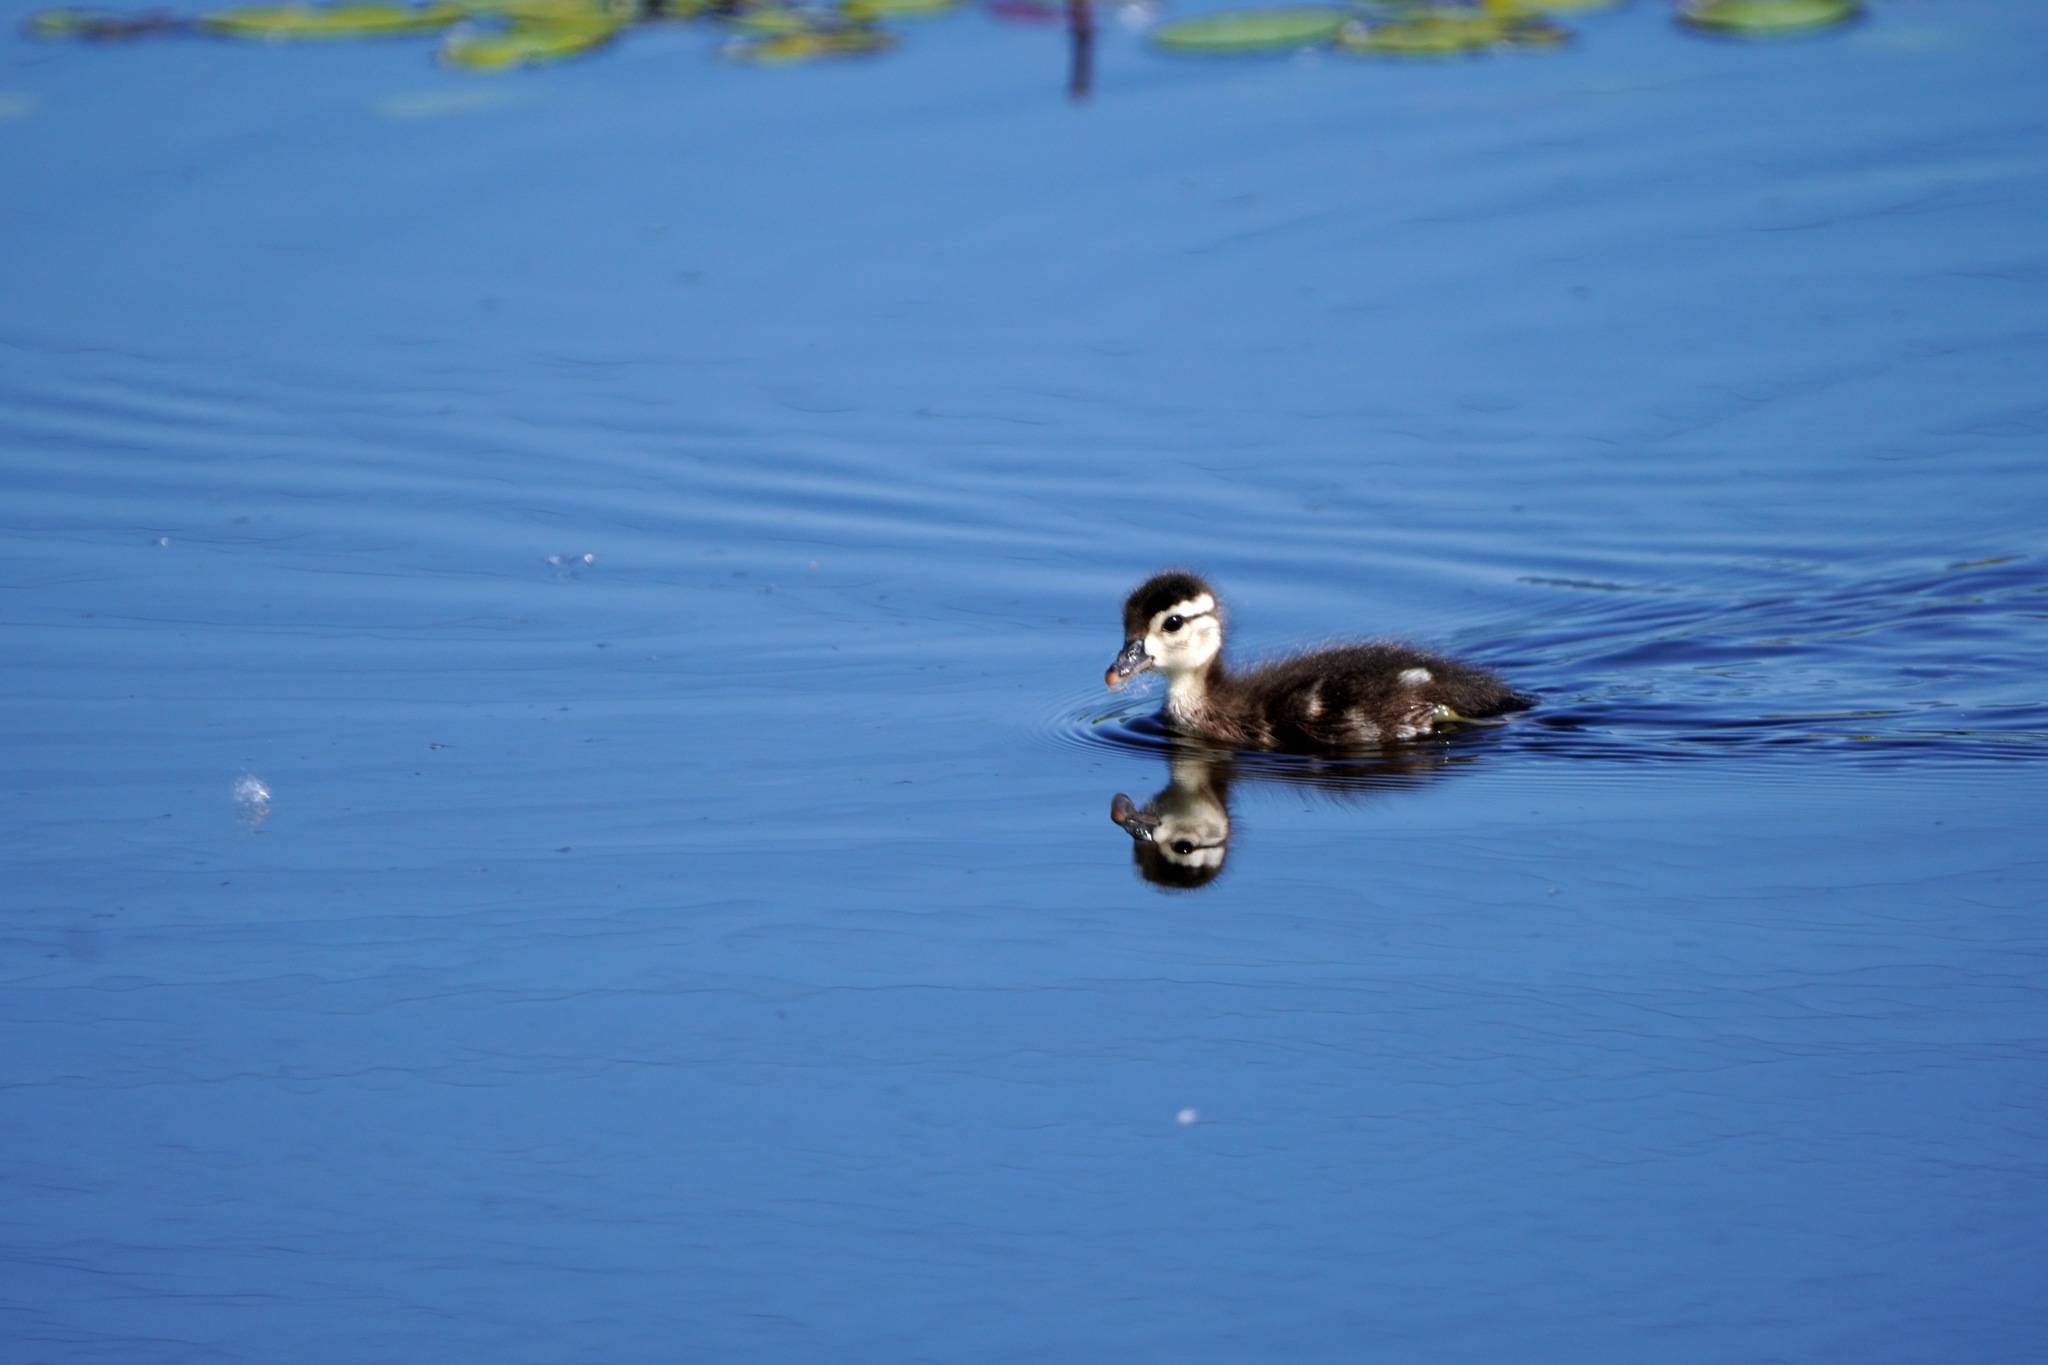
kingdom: Animalia
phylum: Chordata
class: Aves
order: Anseriformes
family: Anatidae
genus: Aix
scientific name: Aix sponsa
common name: Wood duck
